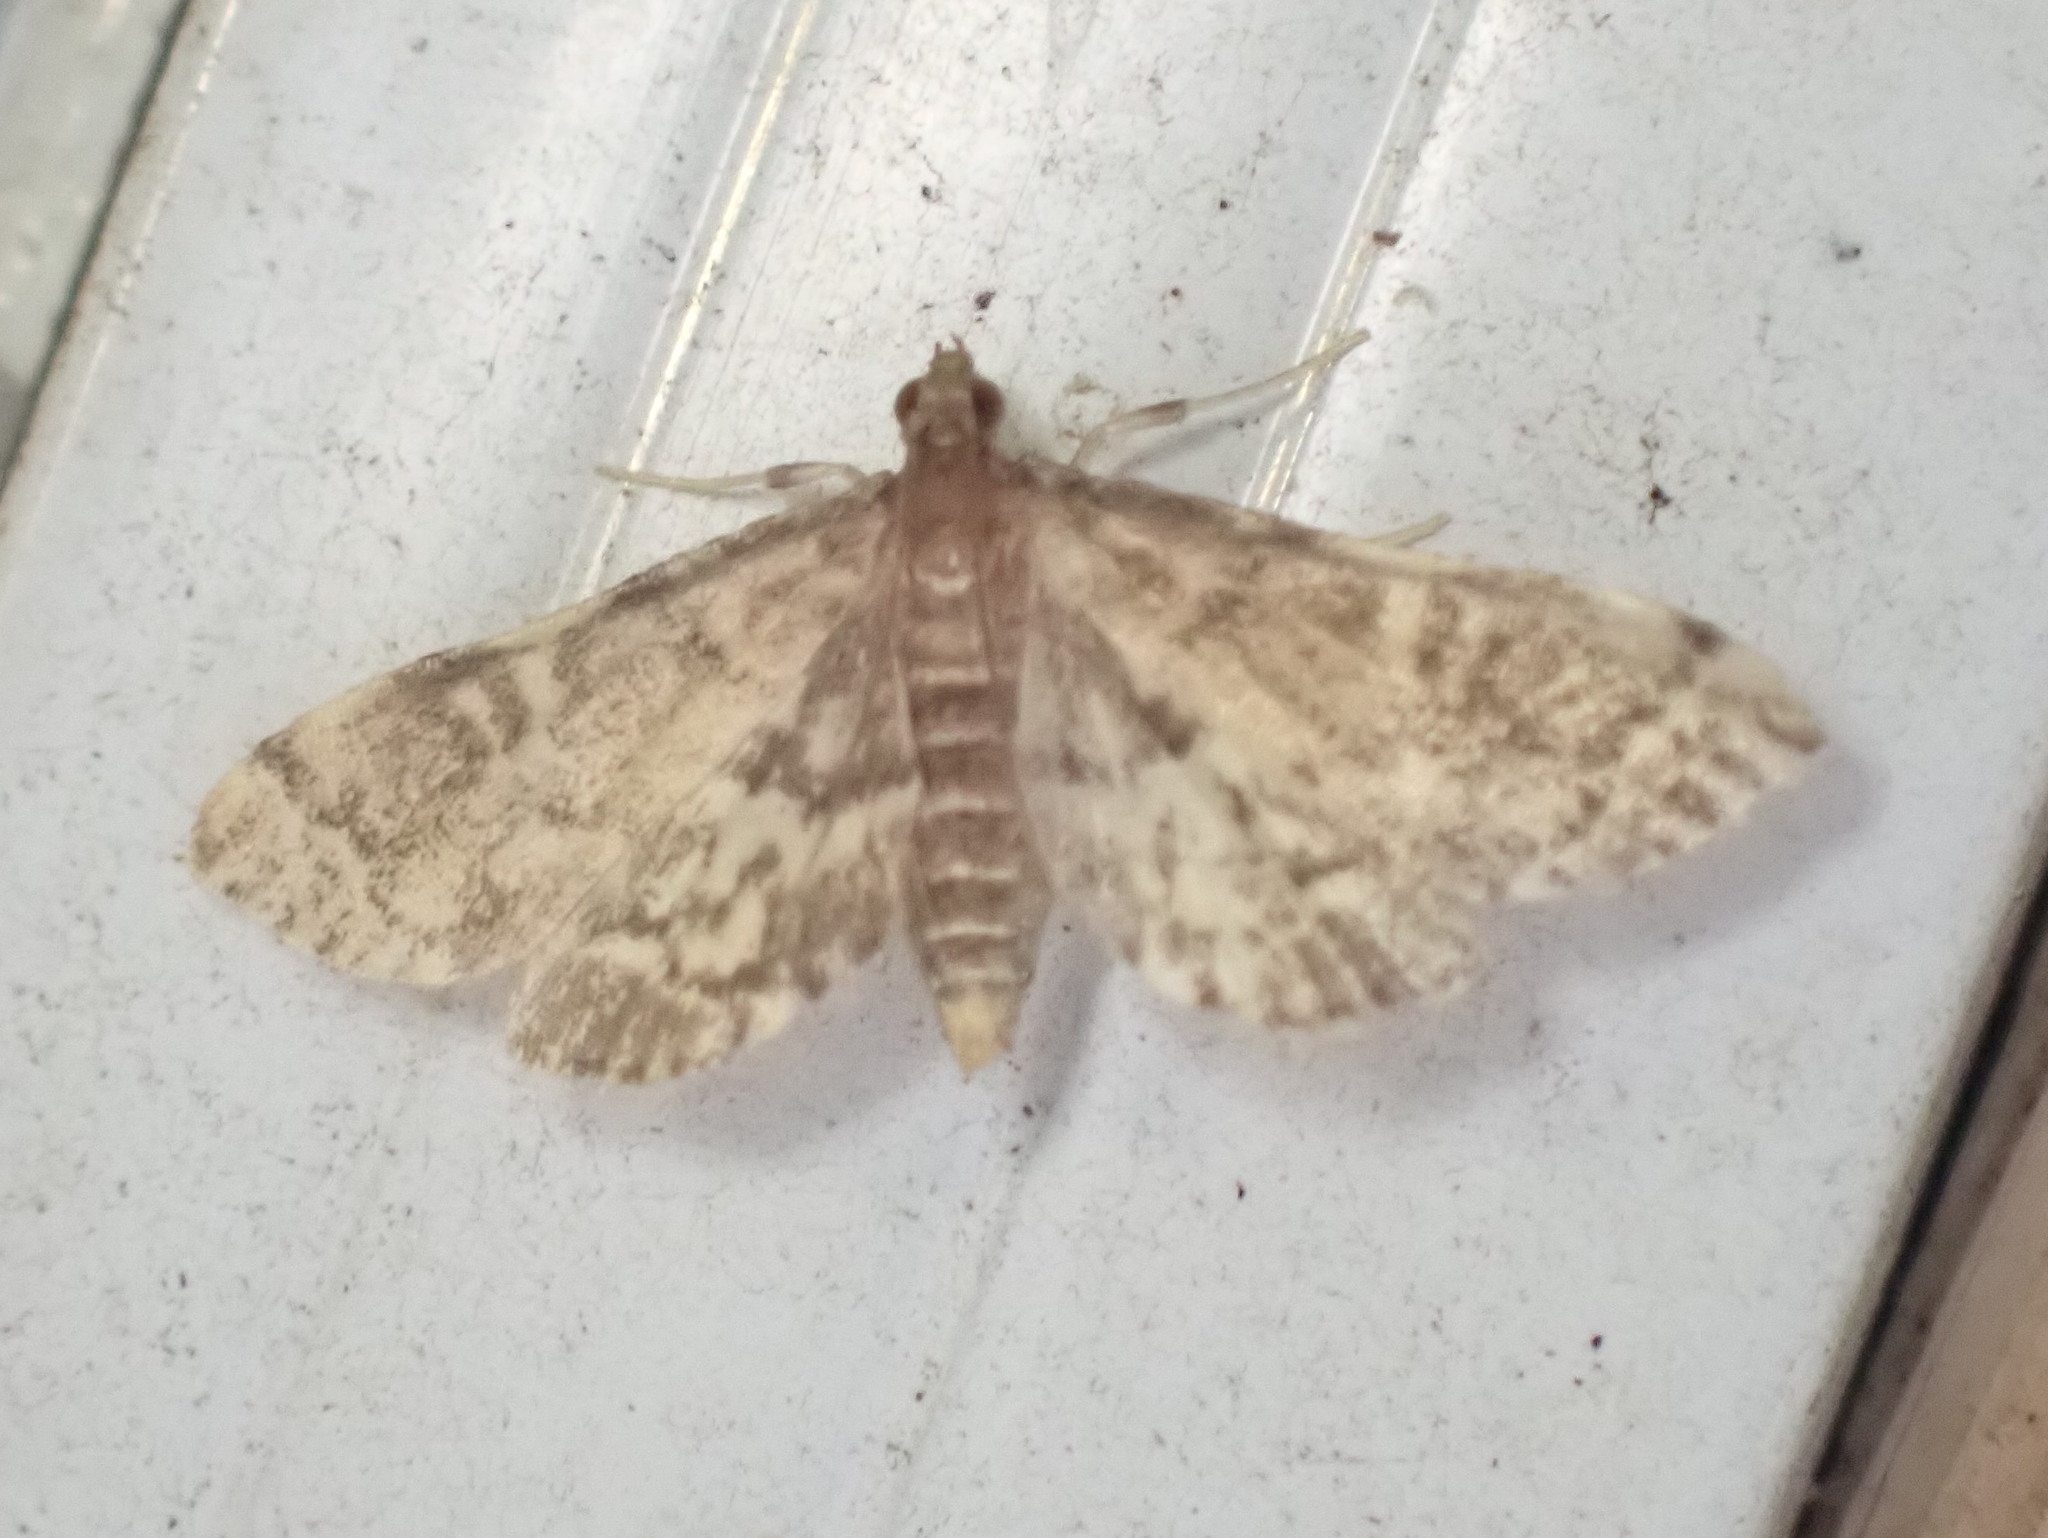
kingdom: Animalia
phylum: Arthropoda
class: Insecta
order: Lepidoptera
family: Crambidae
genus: Anageshna
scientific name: Anageshna primordialis
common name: Yellow-spotted webworm moth
